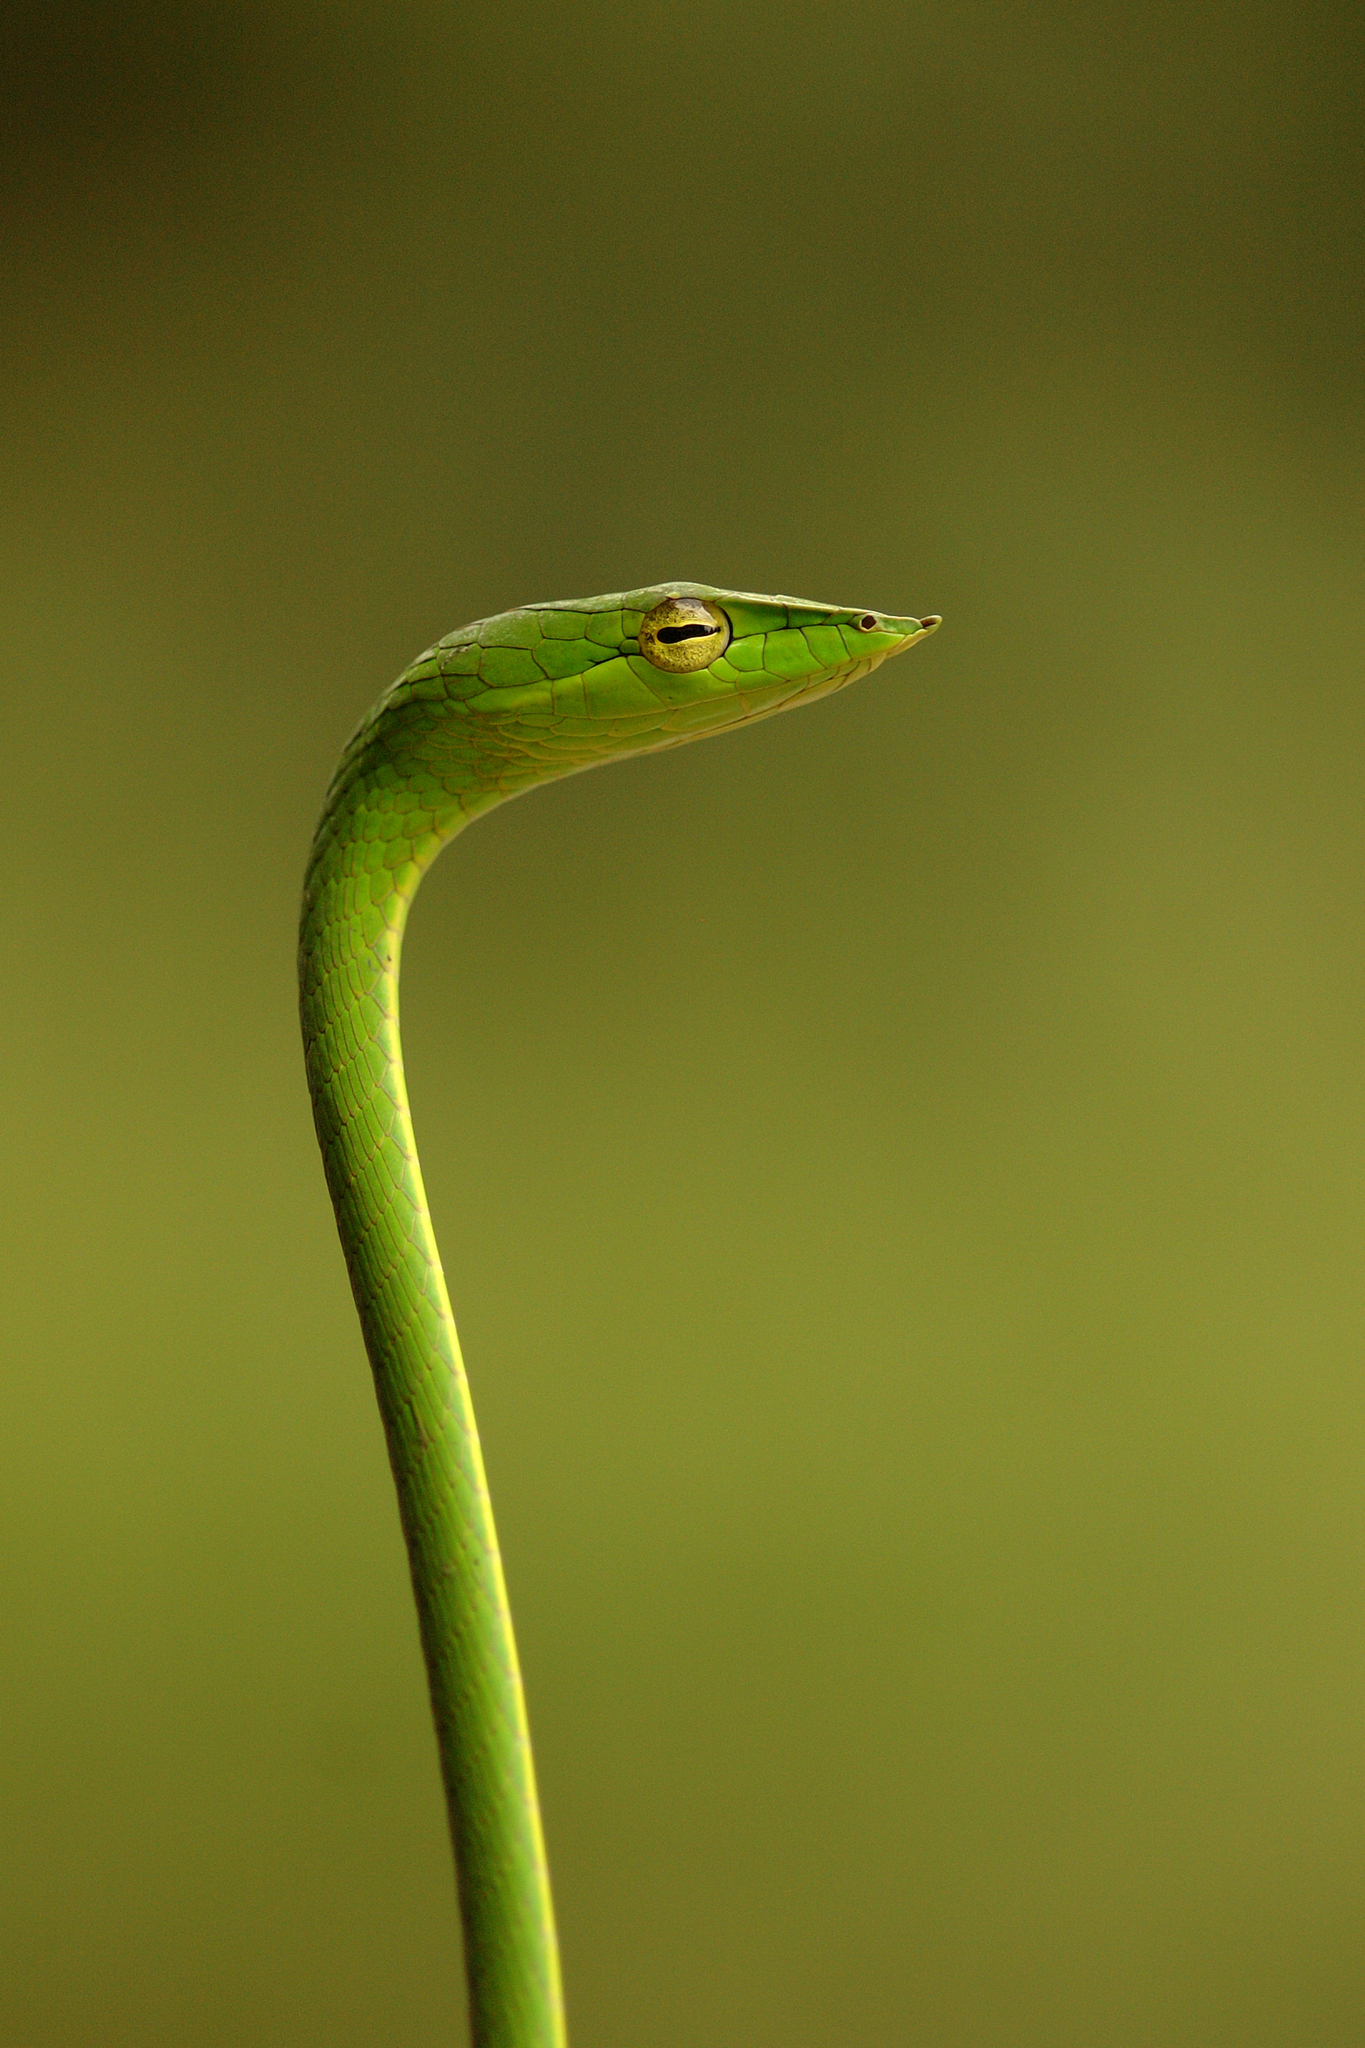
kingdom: Animalia
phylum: Chordata
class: Squamata
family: Colubridae
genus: Ahaetulla
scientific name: Ahaetulla farnsworthi
